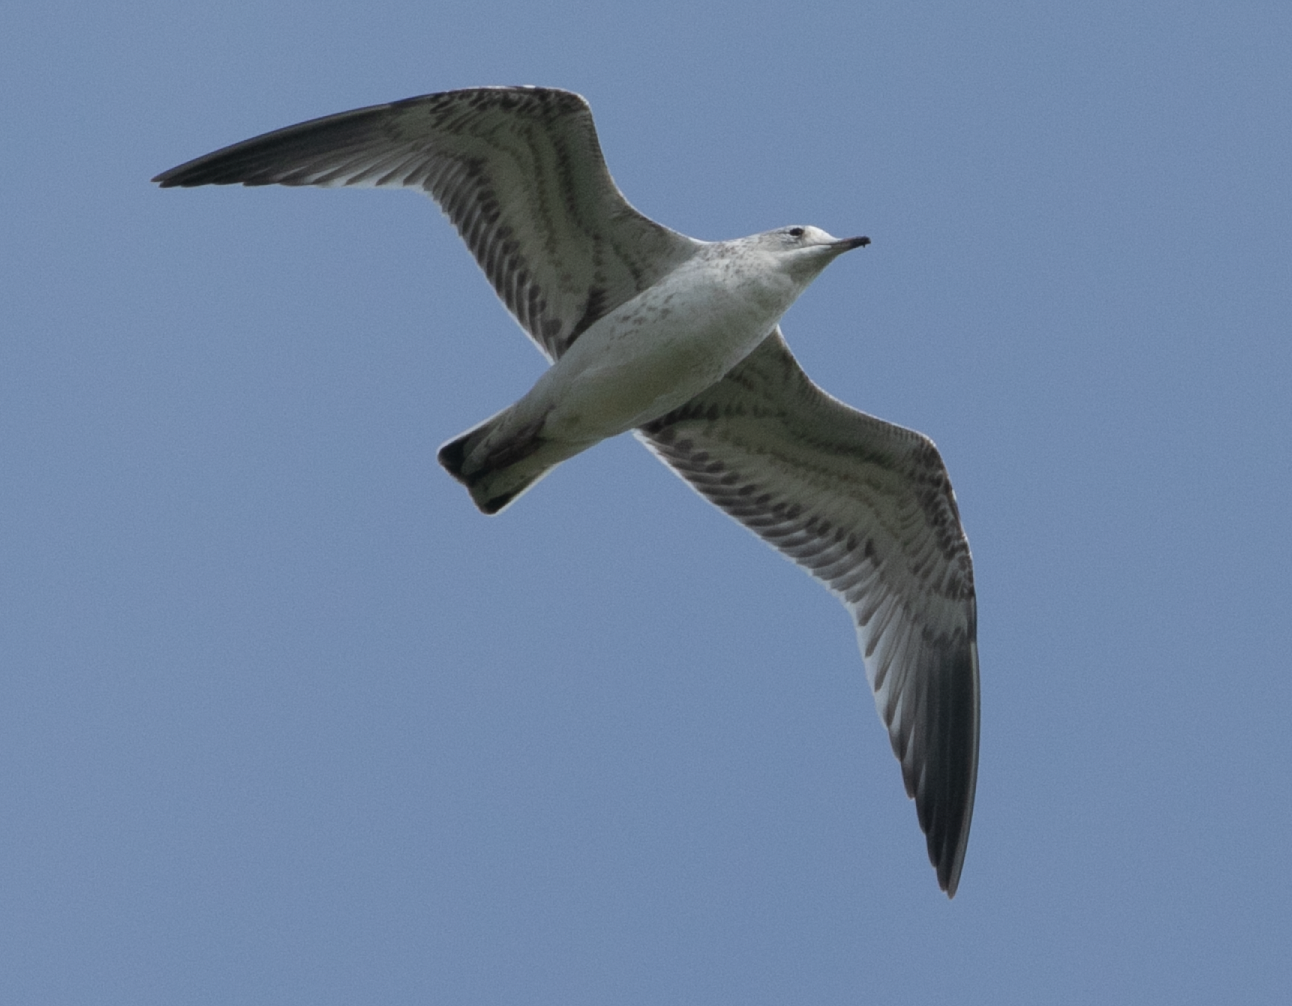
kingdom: Animalia
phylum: Chordata
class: Aves
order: Charadriiformes
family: Laridae
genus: Larus
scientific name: Larus canus
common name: Mew gull
